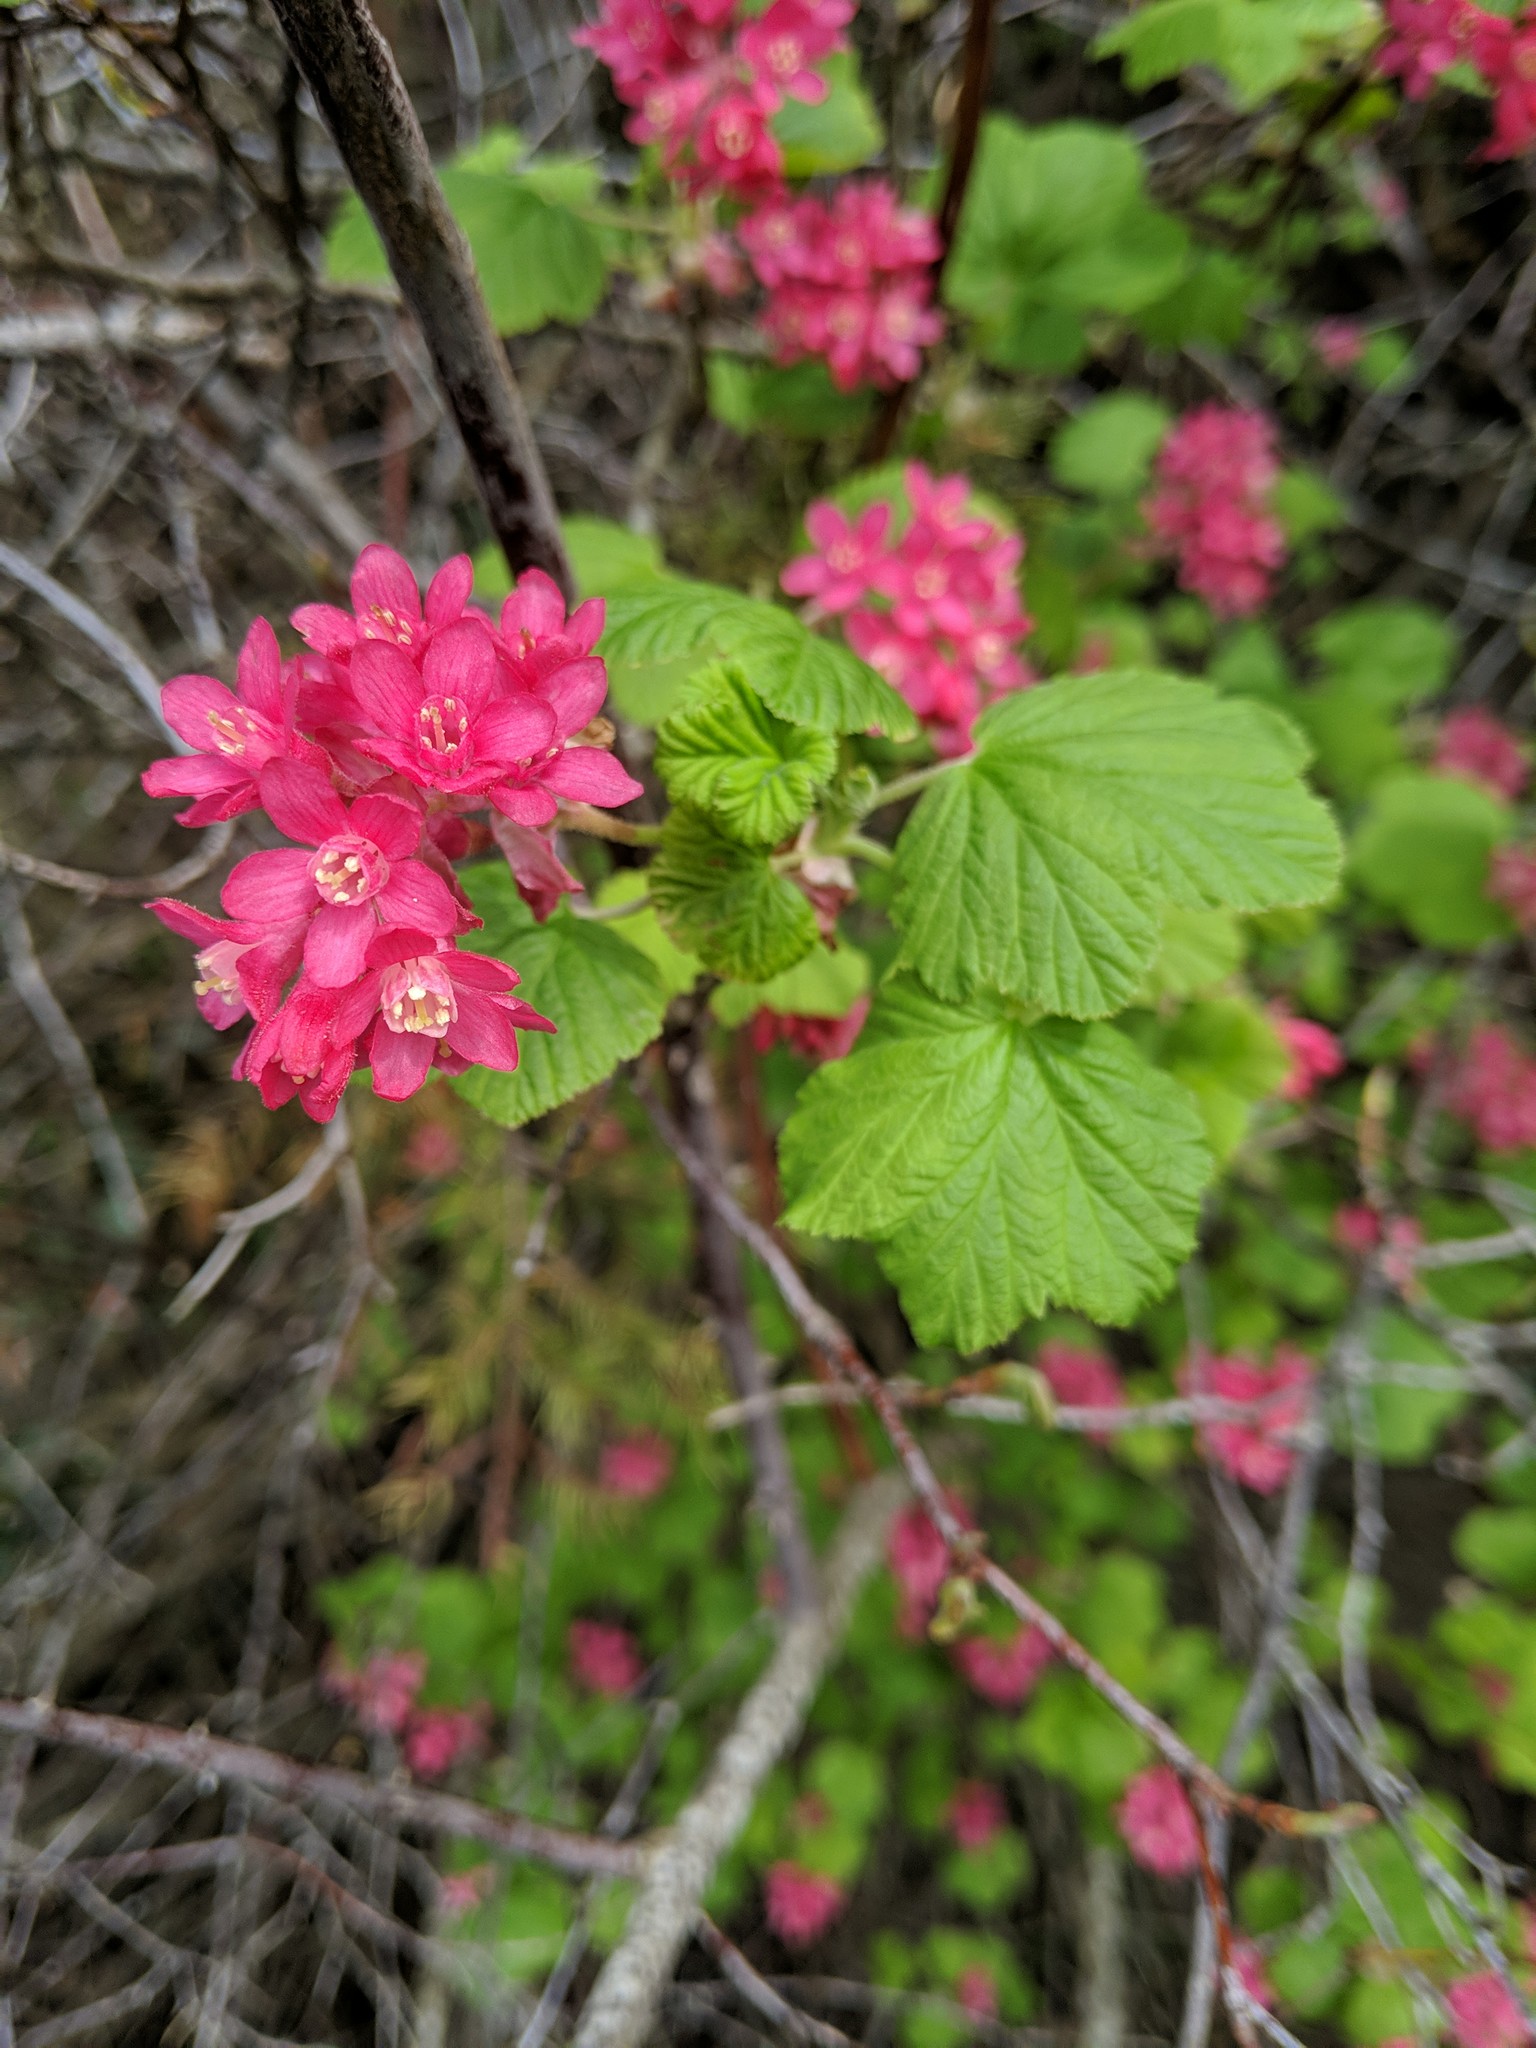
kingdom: Plantae
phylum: Tracheophyta
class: Magnoliopsida
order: Saxifragales
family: Grossulariaceae
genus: Ribes
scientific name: Ribes sanguineum
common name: Flowering currant
